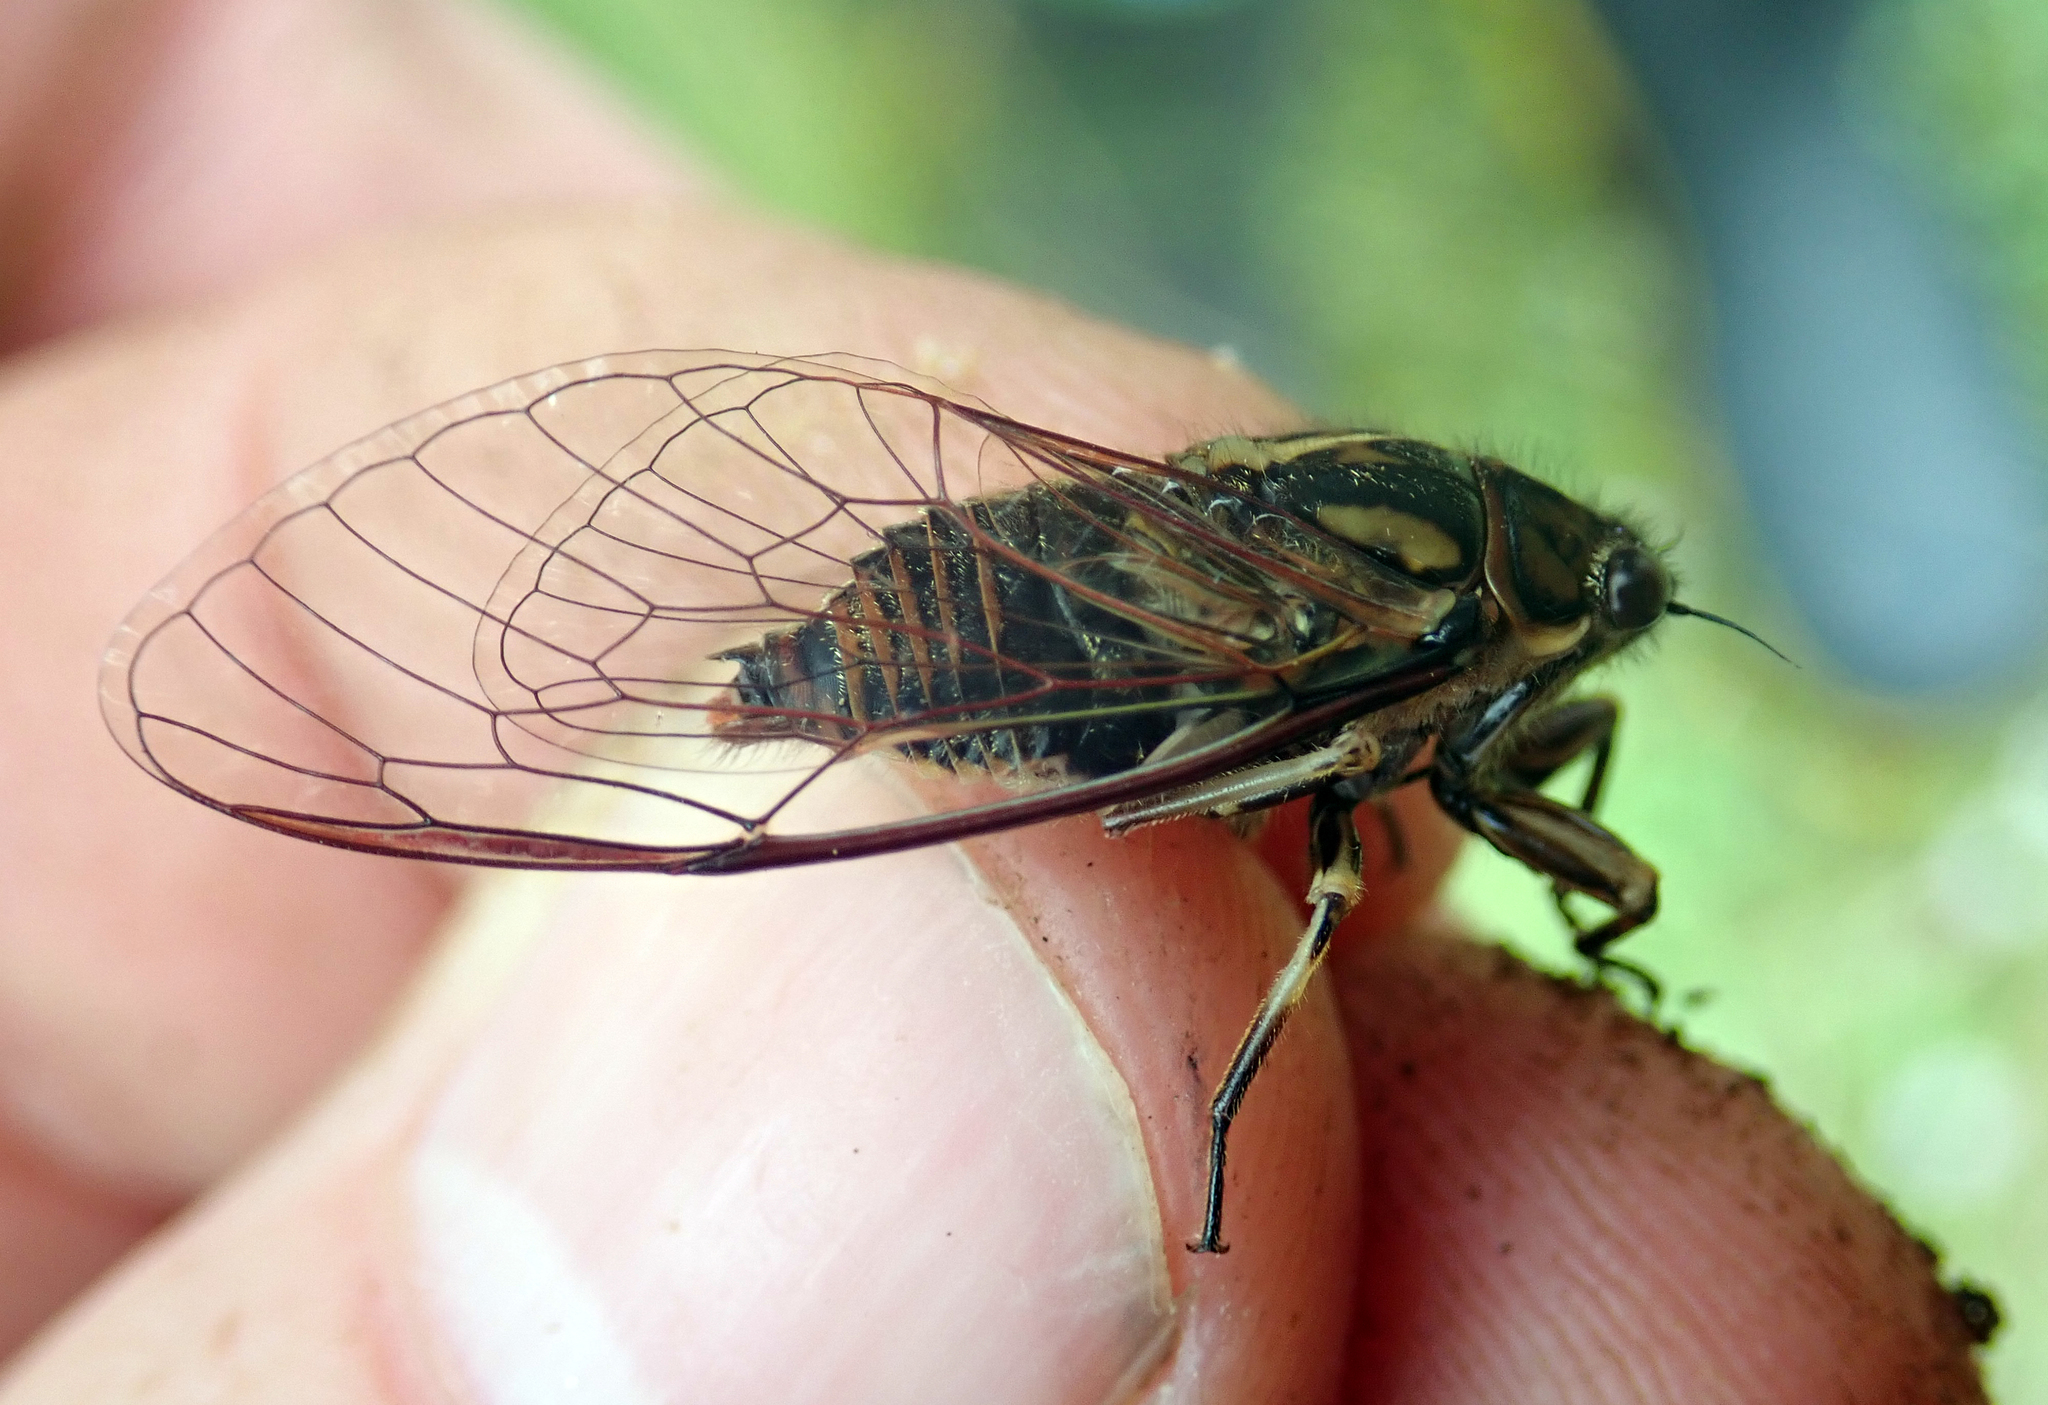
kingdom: Animalia
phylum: Arthropoda
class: Insecta
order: Hemiptera
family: Cicadidae
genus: Kikihia
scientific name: Kikihia longula
